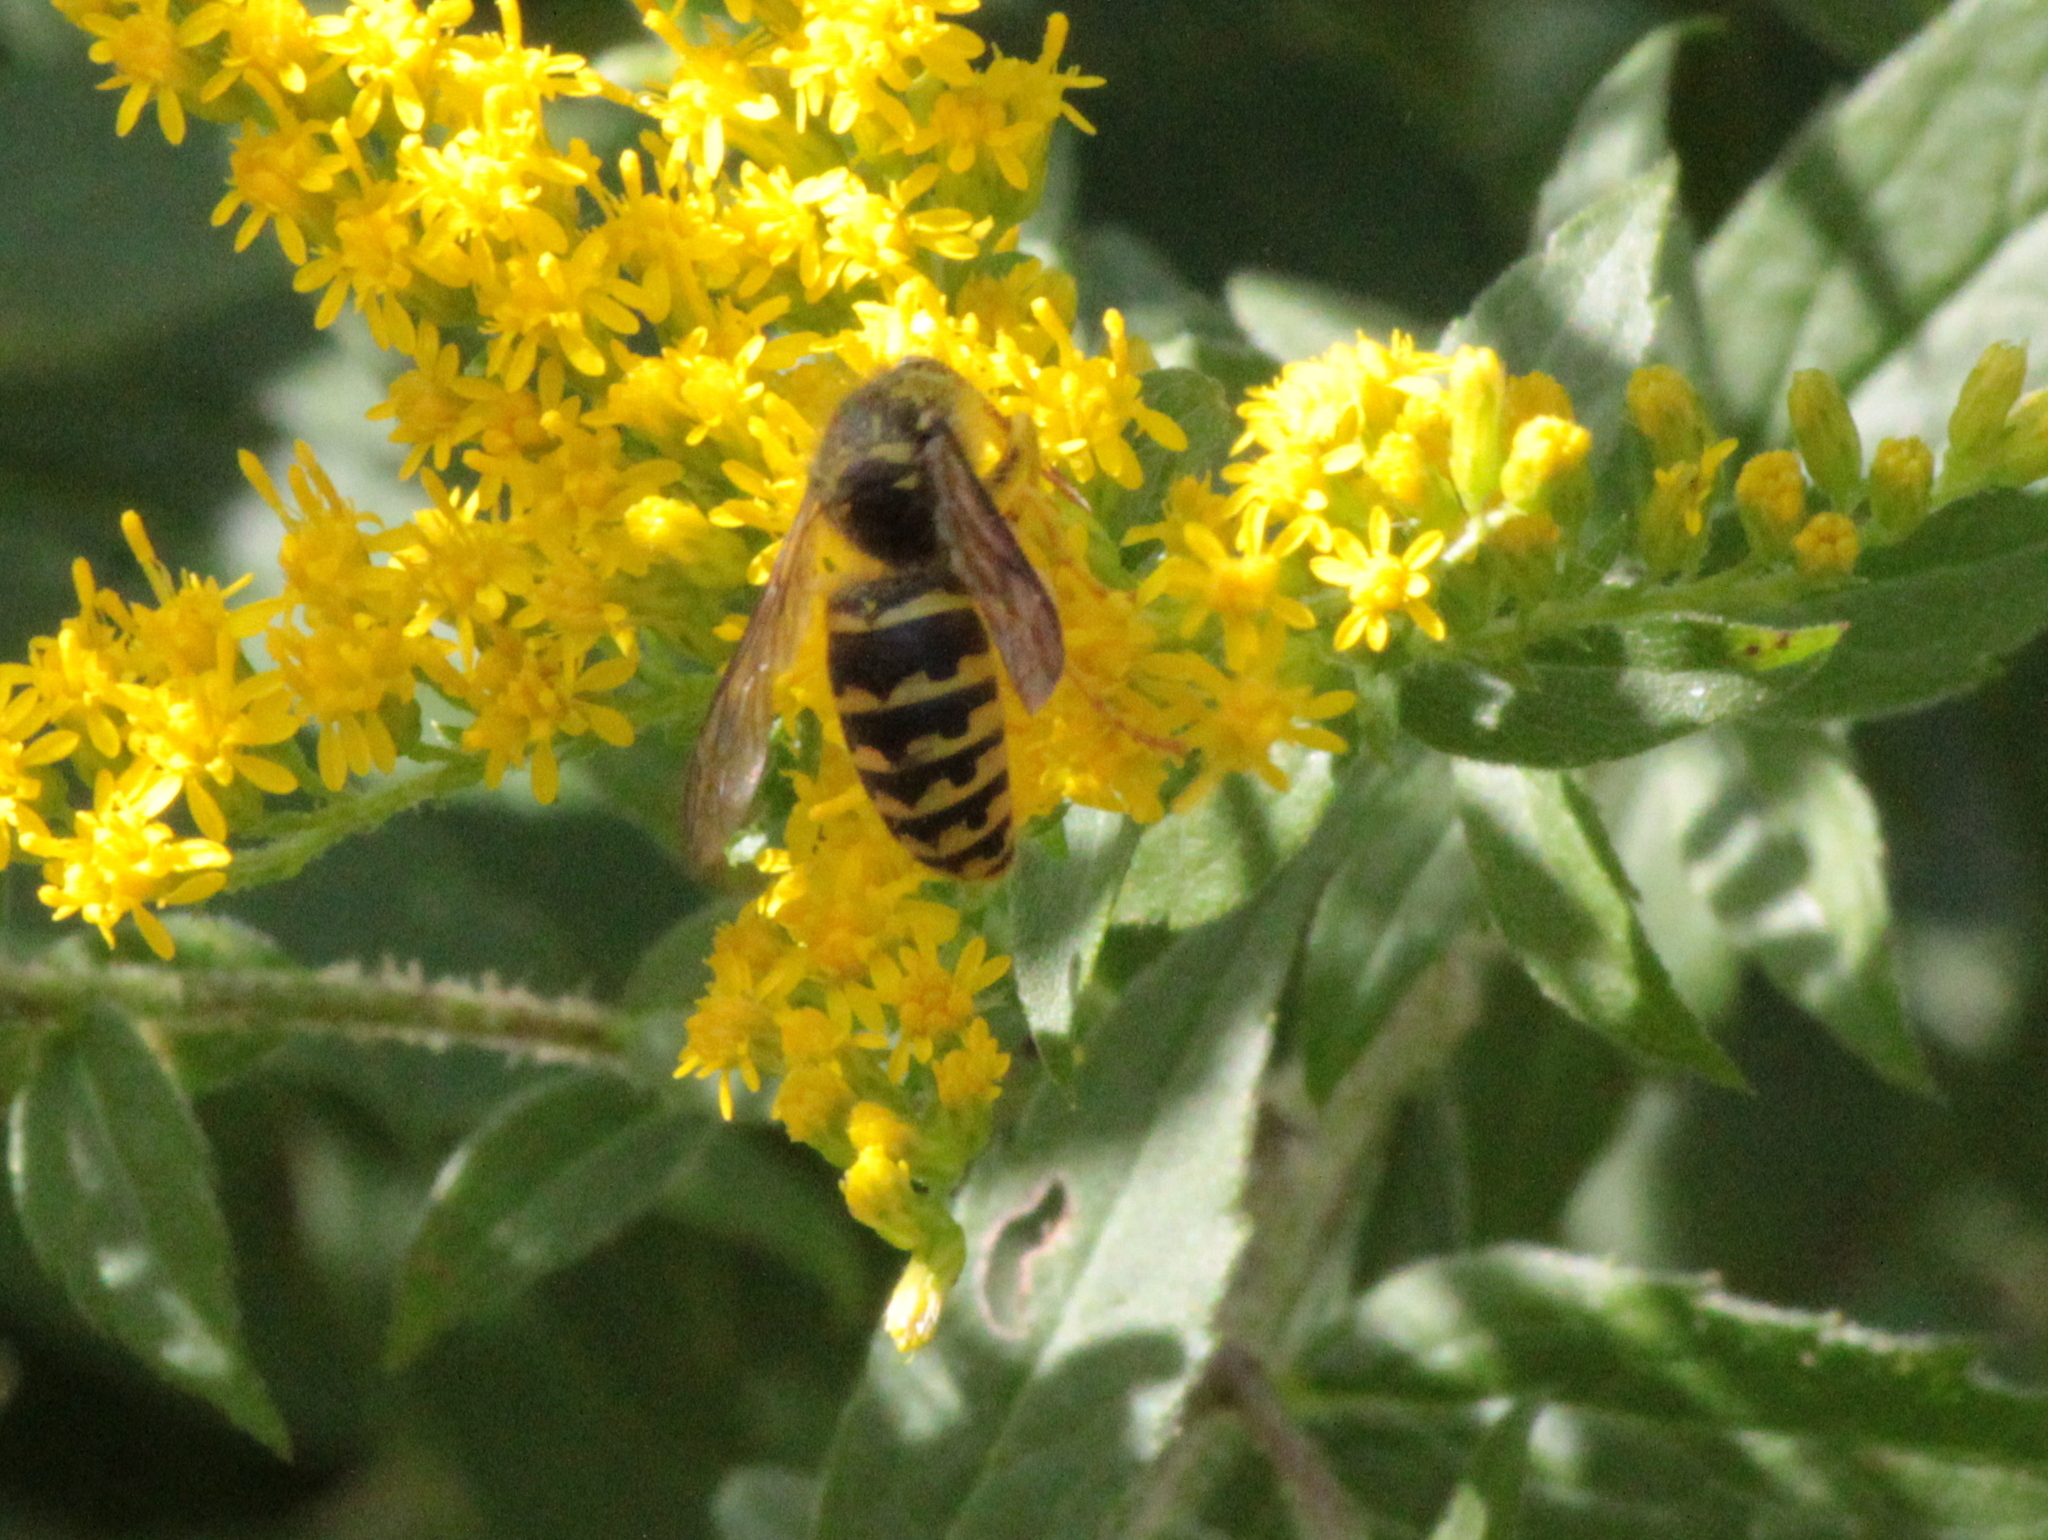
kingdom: Animalia
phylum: Arthropoda
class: Insecta
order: Hymenoptera
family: Vespidae
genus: Dolichovespula
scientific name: Dolichovespula arenaria
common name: Aerial yellowjacket
